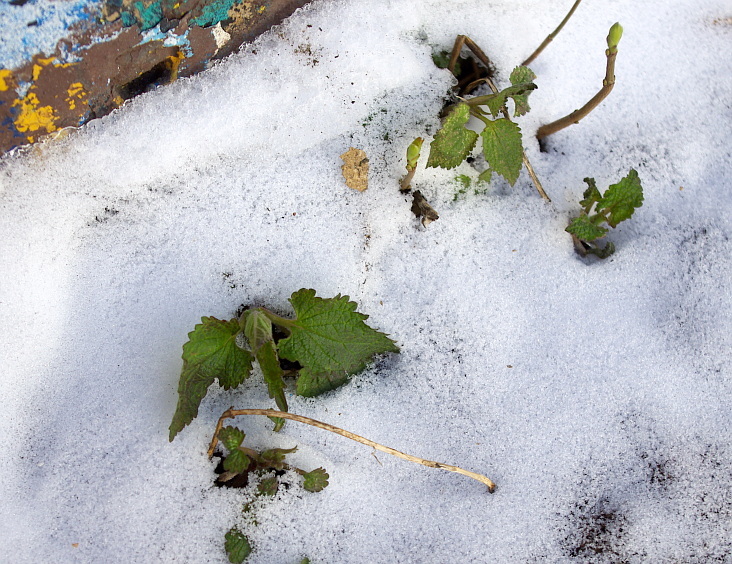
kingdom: Plantae
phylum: Tracheophyta
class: Magnoliopsida
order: Lamiales
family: Lamiaceae
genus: Lamium
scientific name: Lamium album
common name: White dead-nettle
